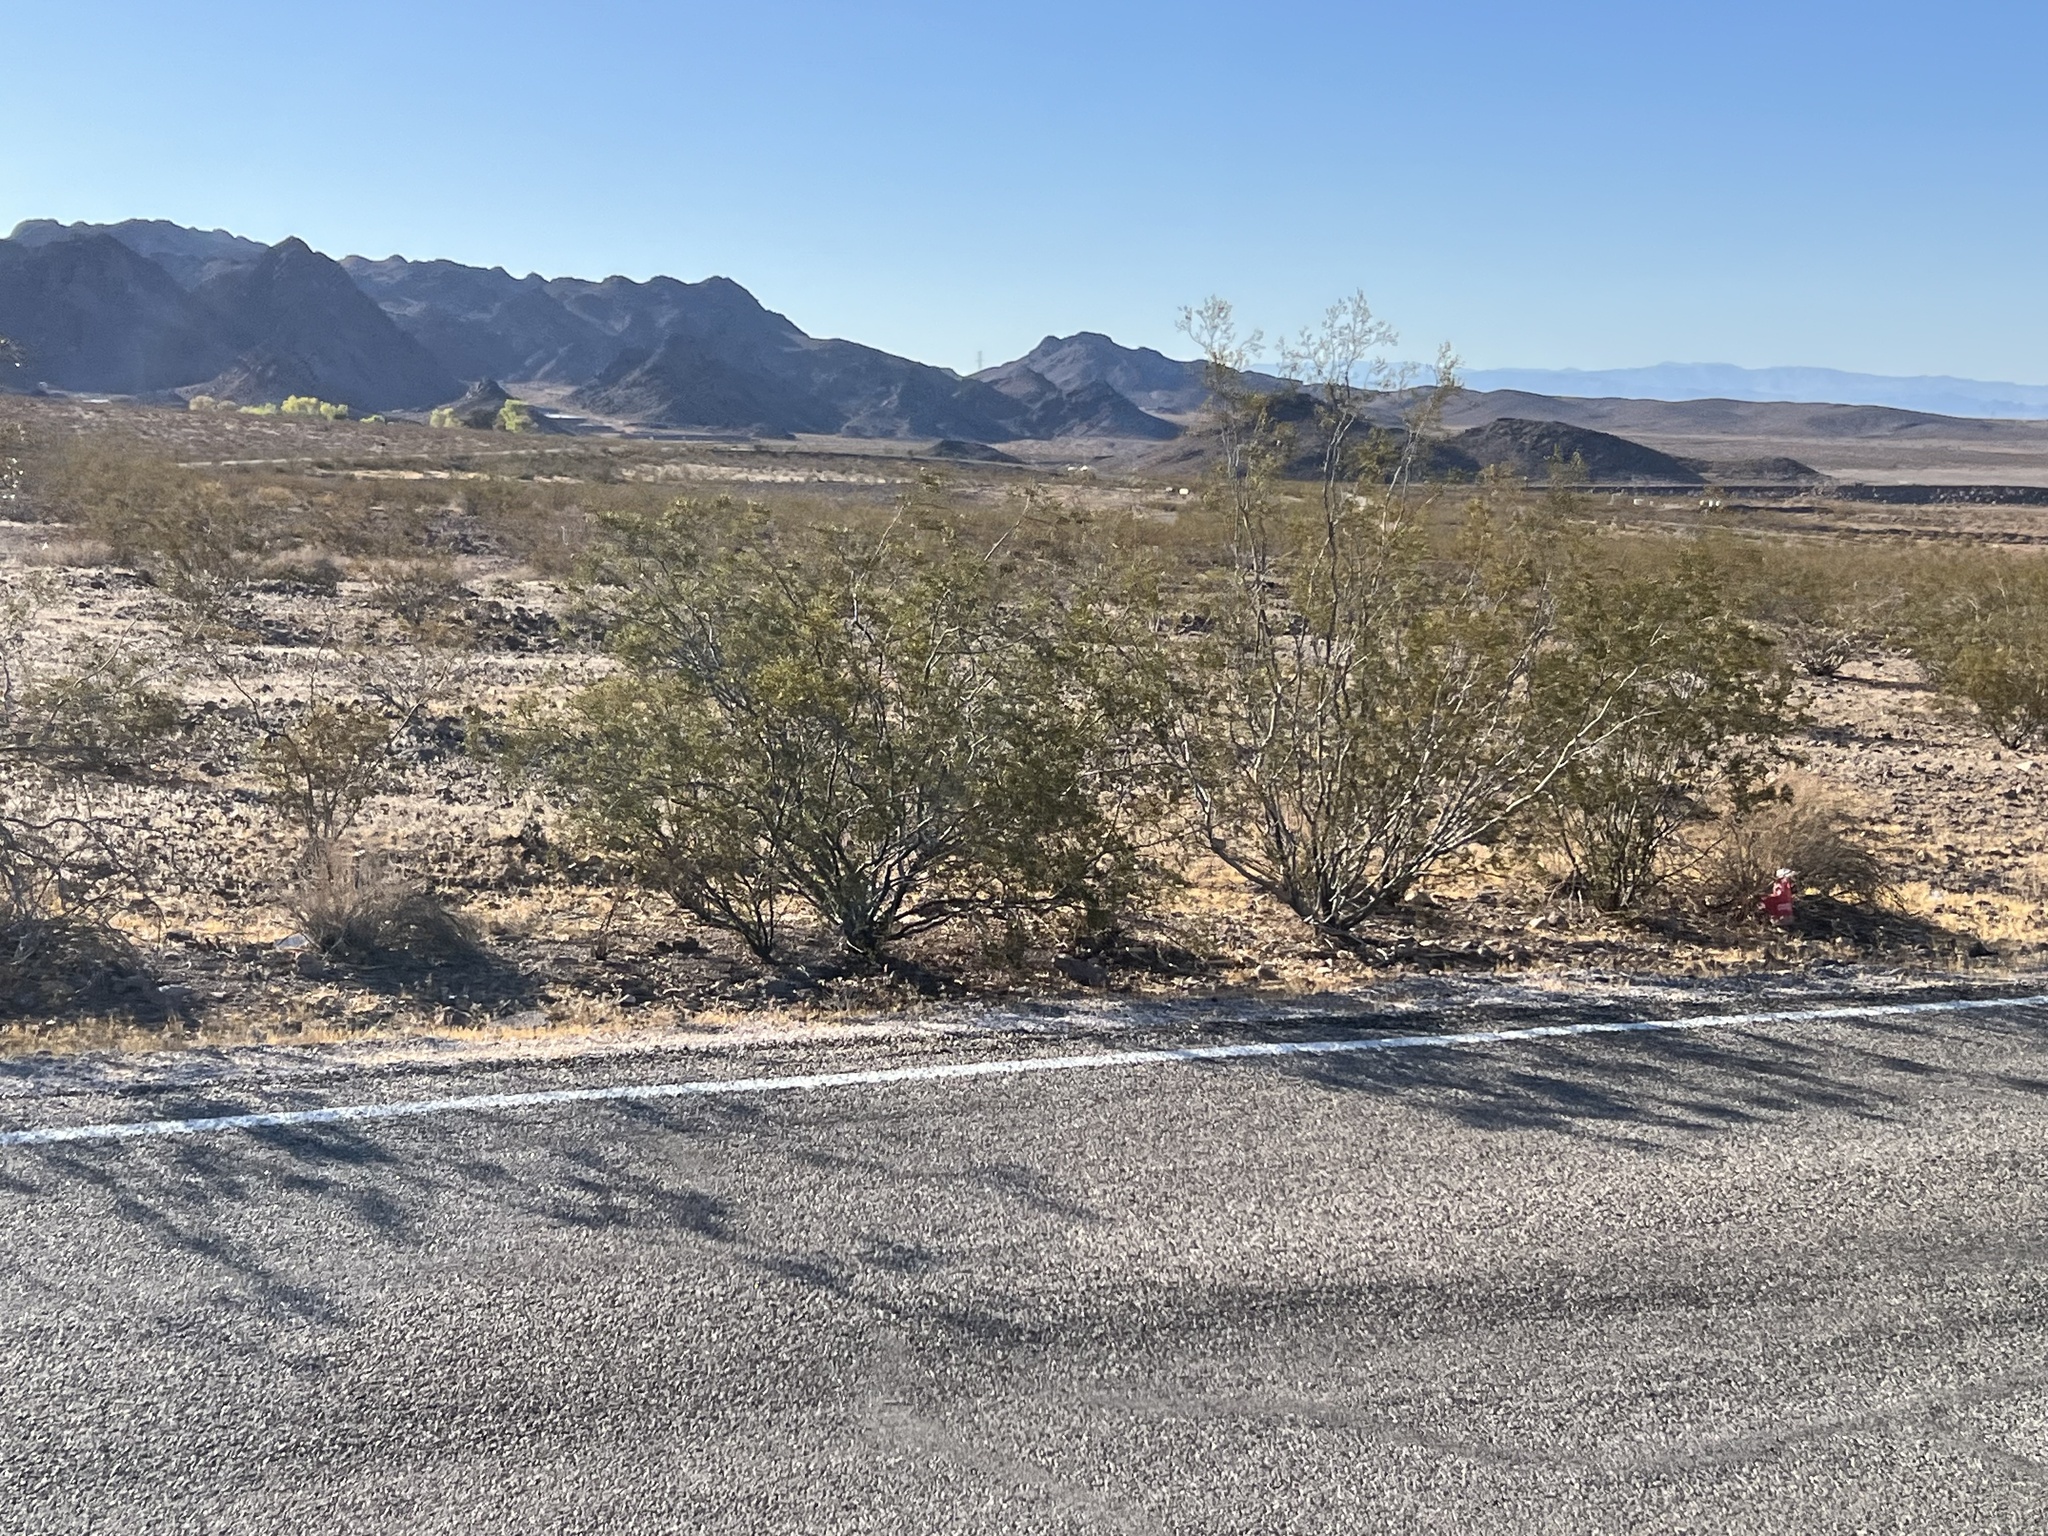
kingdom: Plantae
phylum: Tracheophyta
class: Magnoliopsida
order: Zygophyllales
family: Zygophyllaceae
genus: Larrea
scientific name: Larrea tridentata
